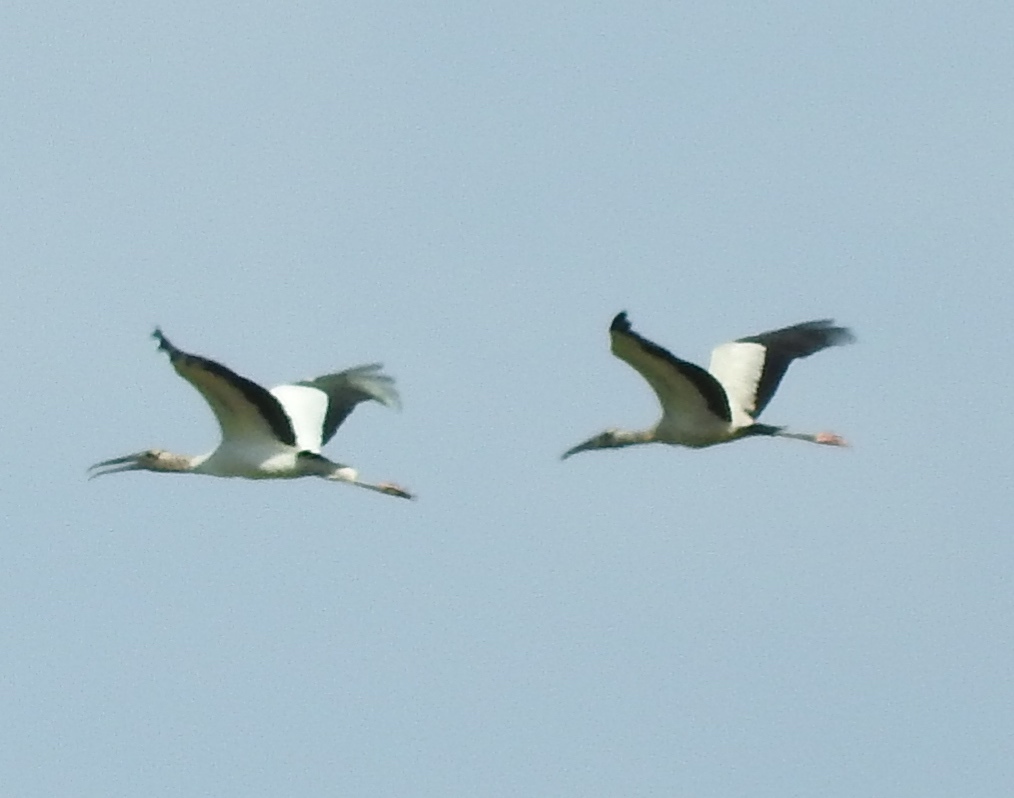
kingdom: Animalia
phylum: Chordata
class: Aves
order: Ciconiiformes
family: Ciconiidae
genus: Mycteria
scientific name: Mycteria americana
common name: Wood stork
